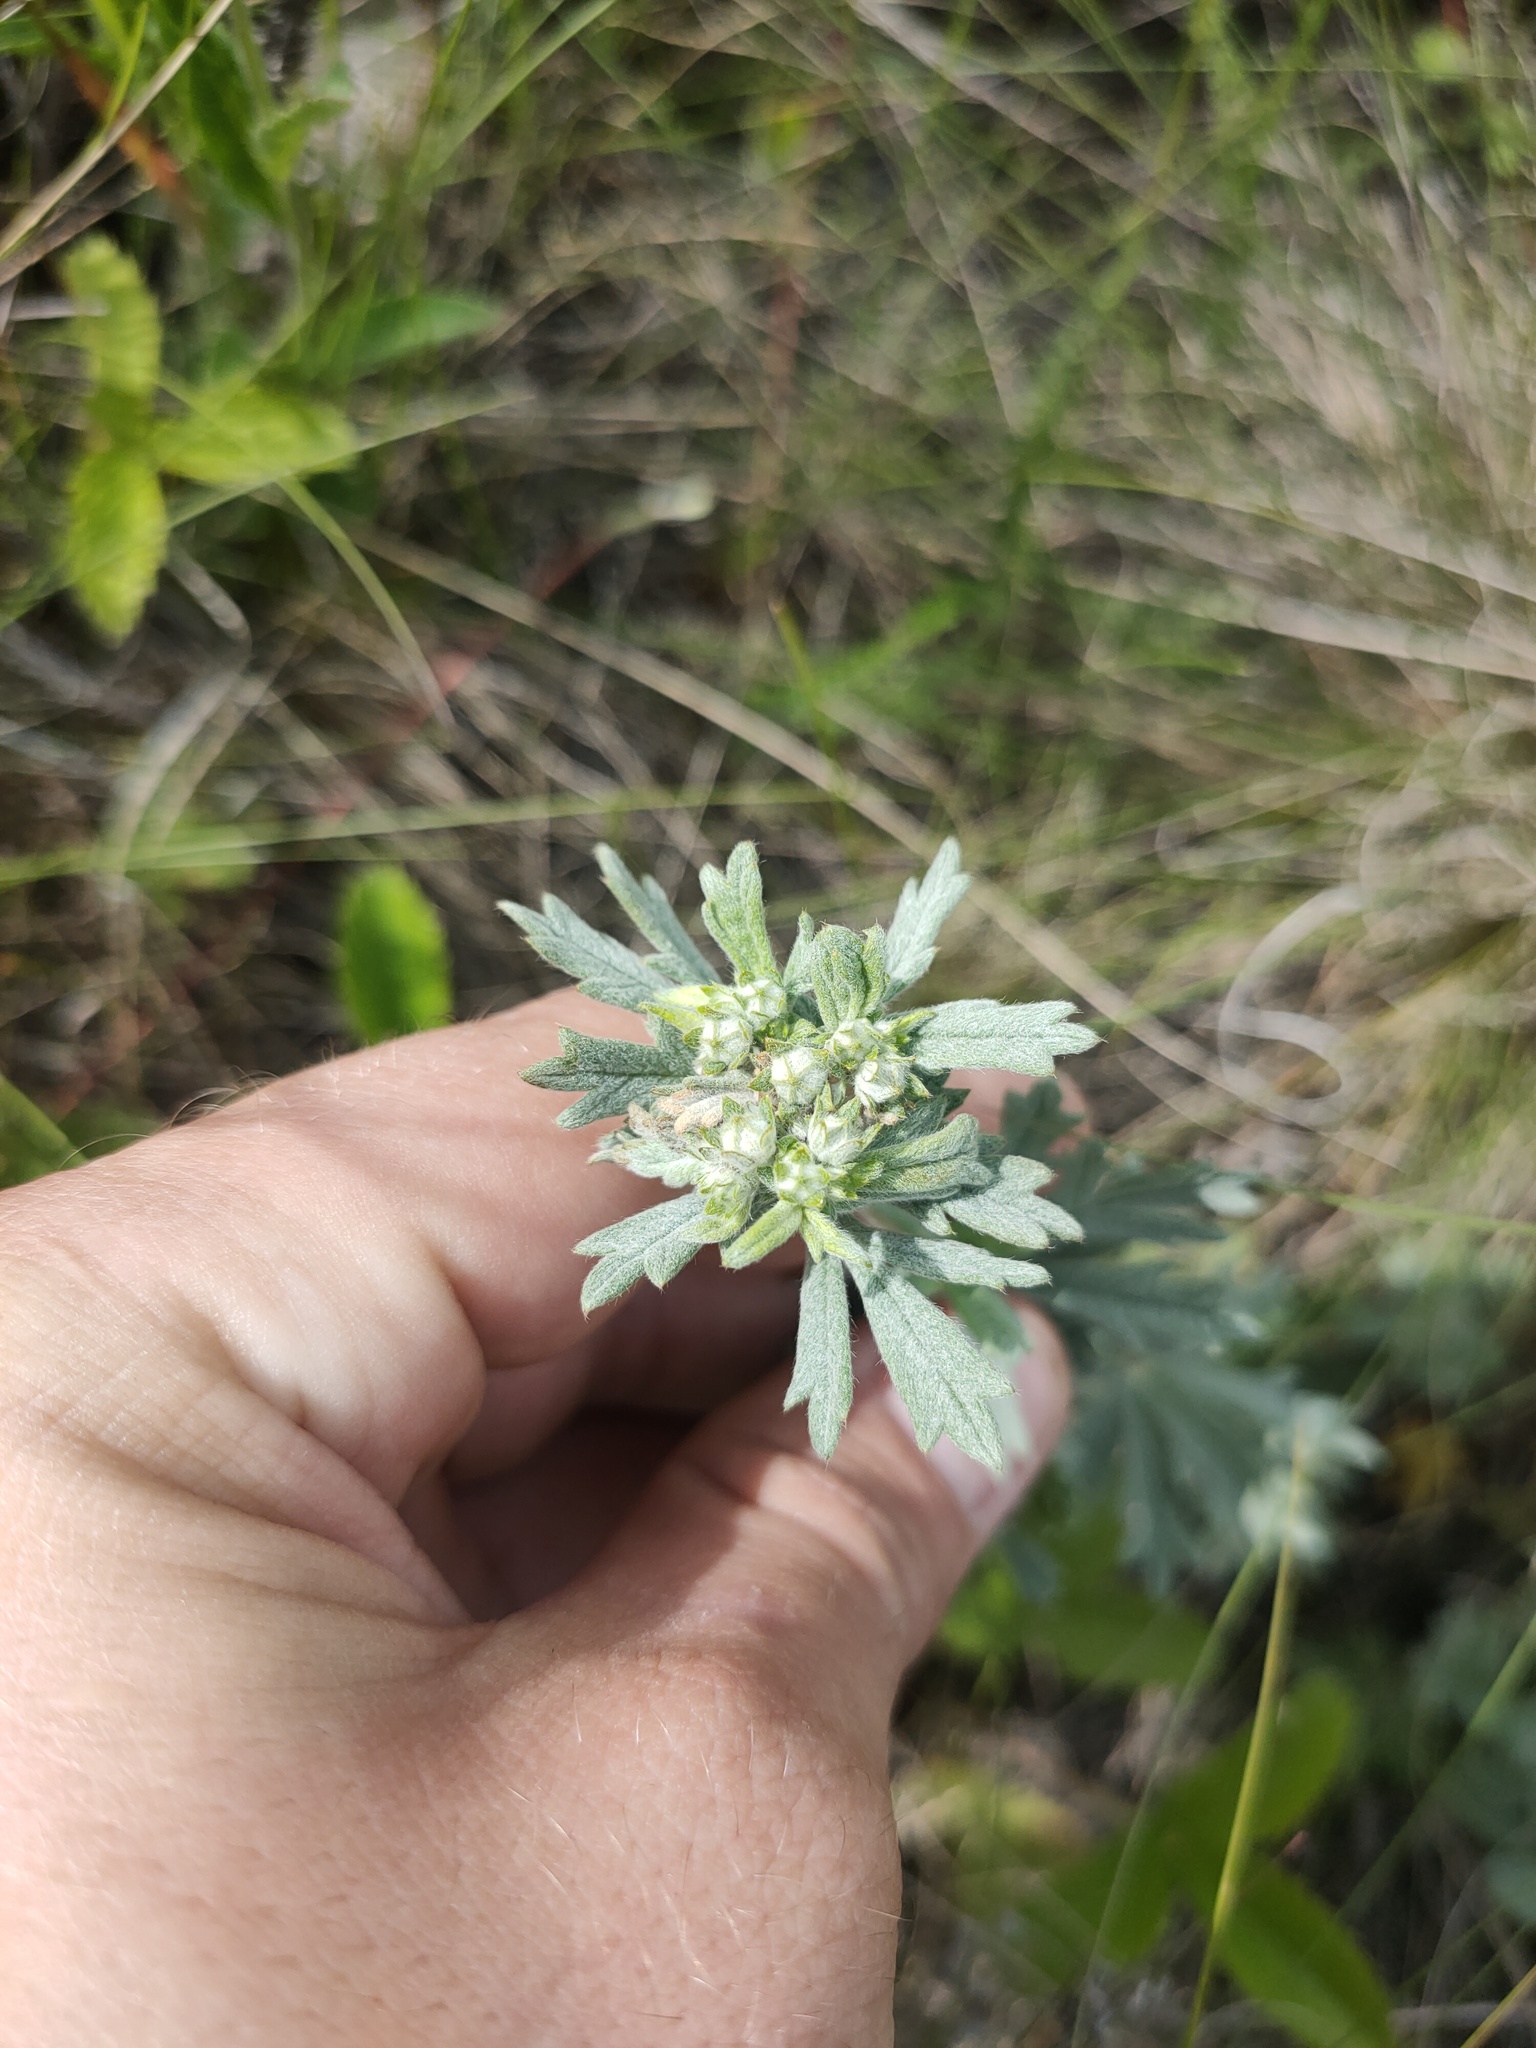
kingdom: Plantae
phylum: Tracheophyta
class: Magnoliopsida
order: Rosales
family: Rosaceae
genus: Potentilla
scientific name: Potentilla argentea
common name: Hoary cinquefoil
